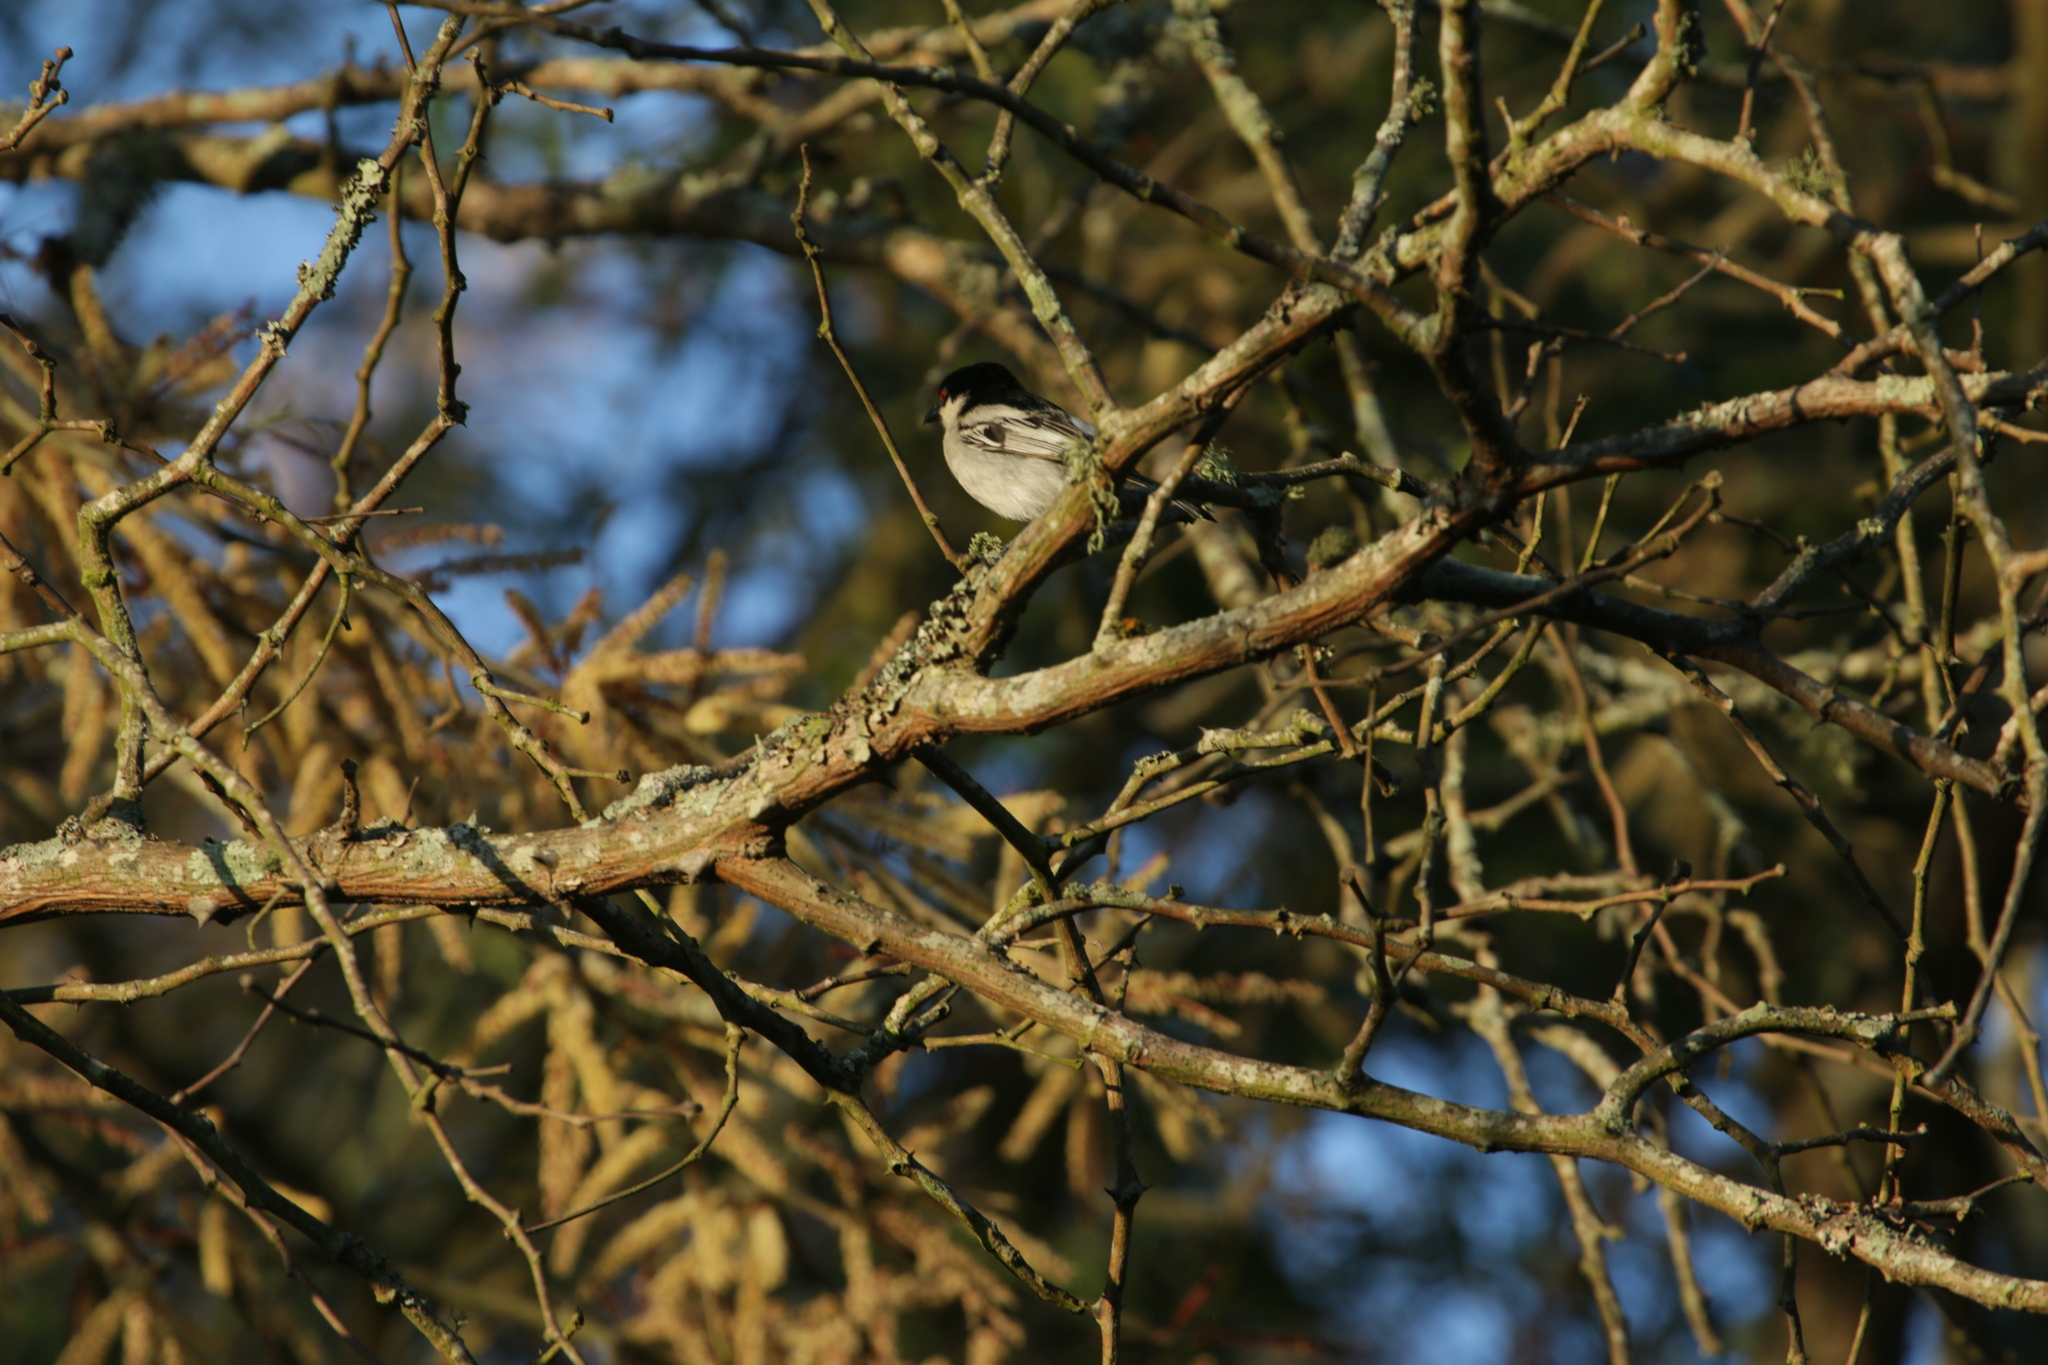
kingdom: Animalia
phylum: Chordata
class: Aves
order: Passeriformes
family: Malaconotidae
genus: Dryoscopus
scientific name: Dryoscopus cubla
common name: Black-backed puffback
